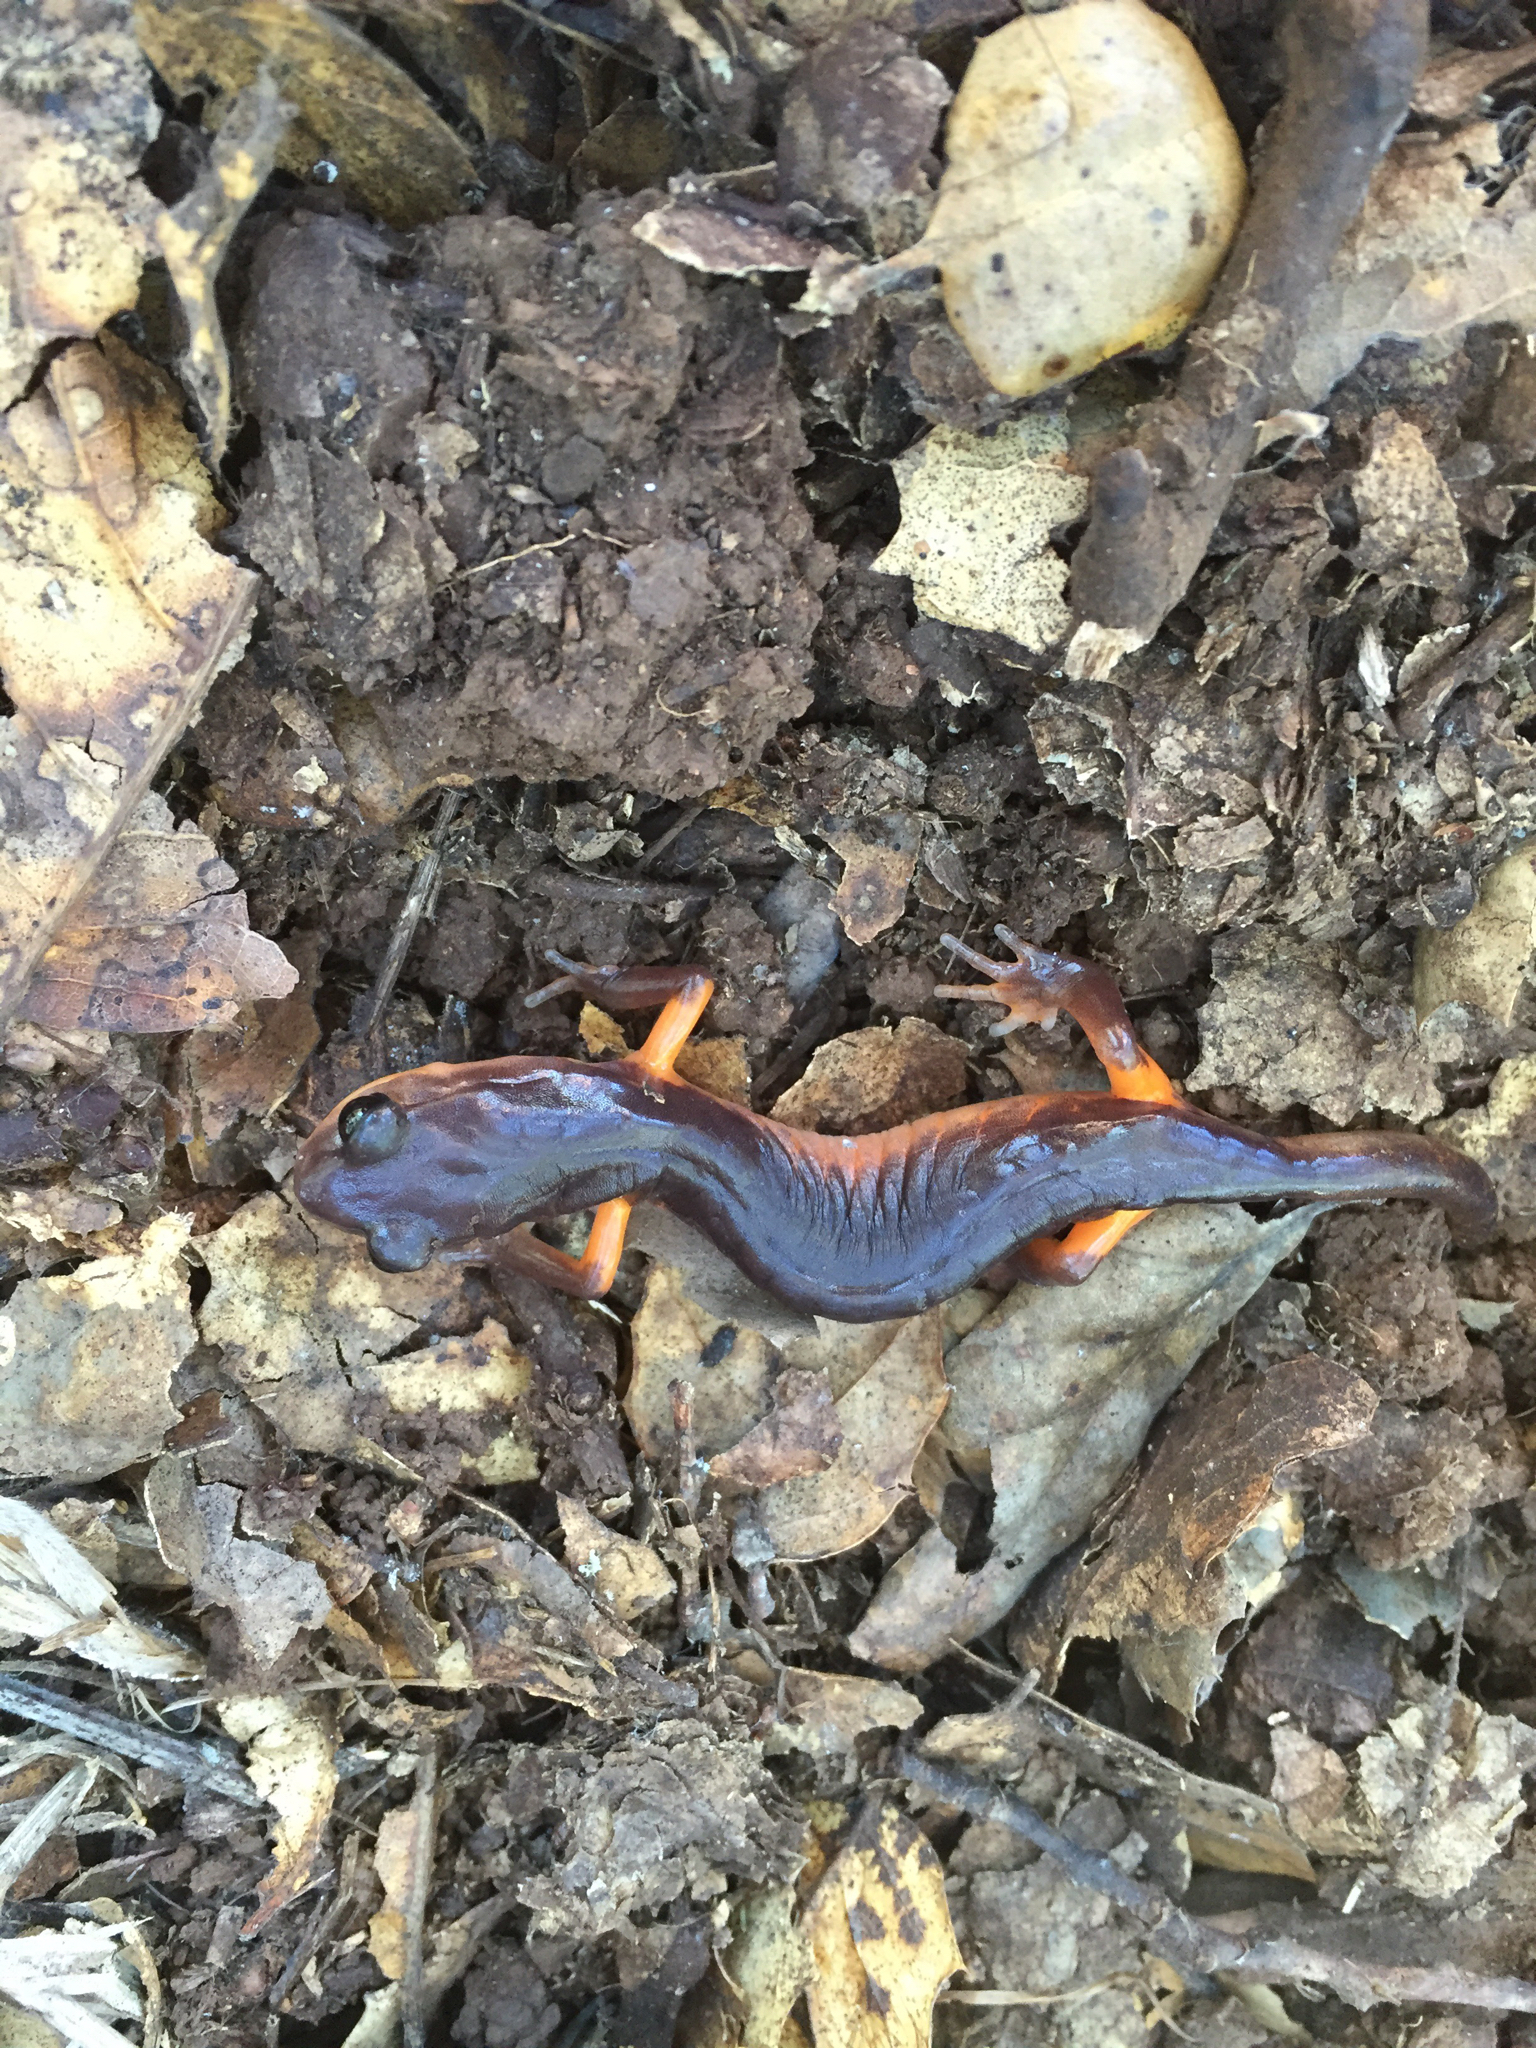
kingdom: Animalia
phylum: Chordata
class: Amphibia
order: Caudata
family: Plethodontidae
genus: Ensatina
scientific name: Ensatina eschscholtzii
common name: Ensatina
